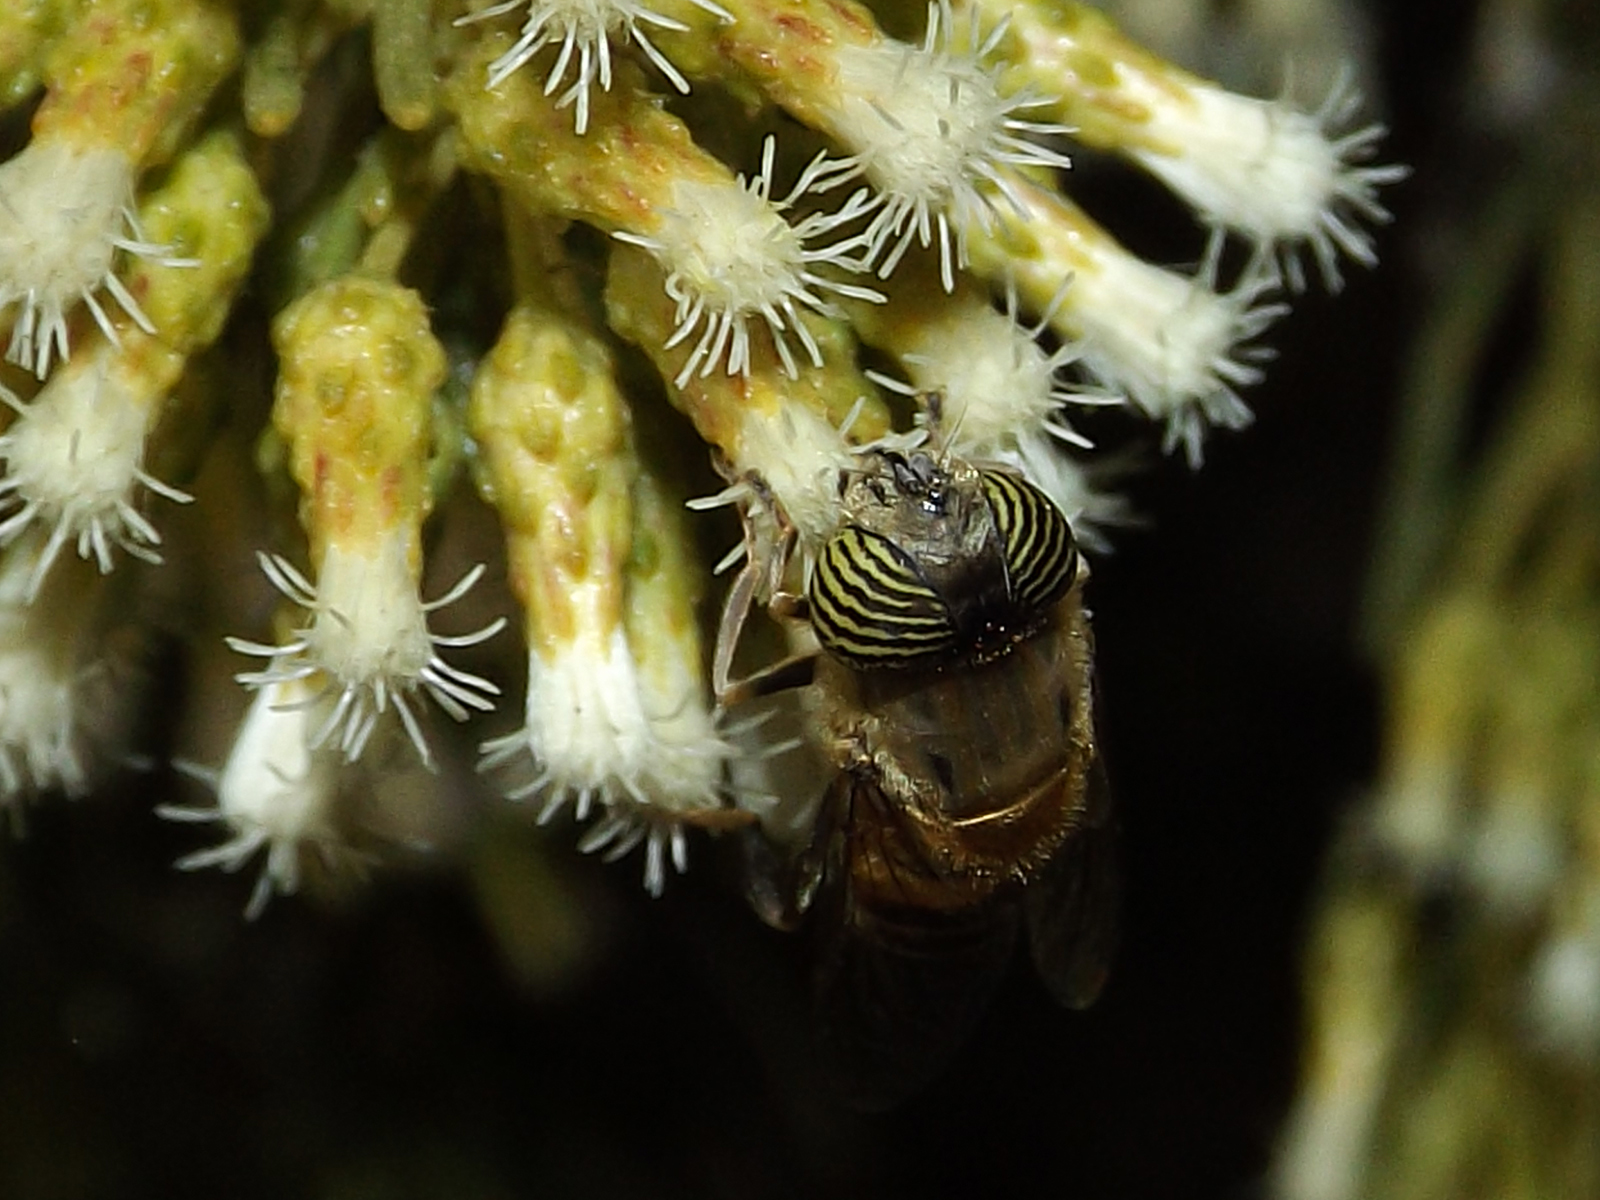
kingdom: Animalia
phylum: Arthropoda
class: Insecta
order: Diptera
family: Syrphidae
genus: Eristalinus
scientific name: Eristalinus taeniops
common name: Syrphid fly
